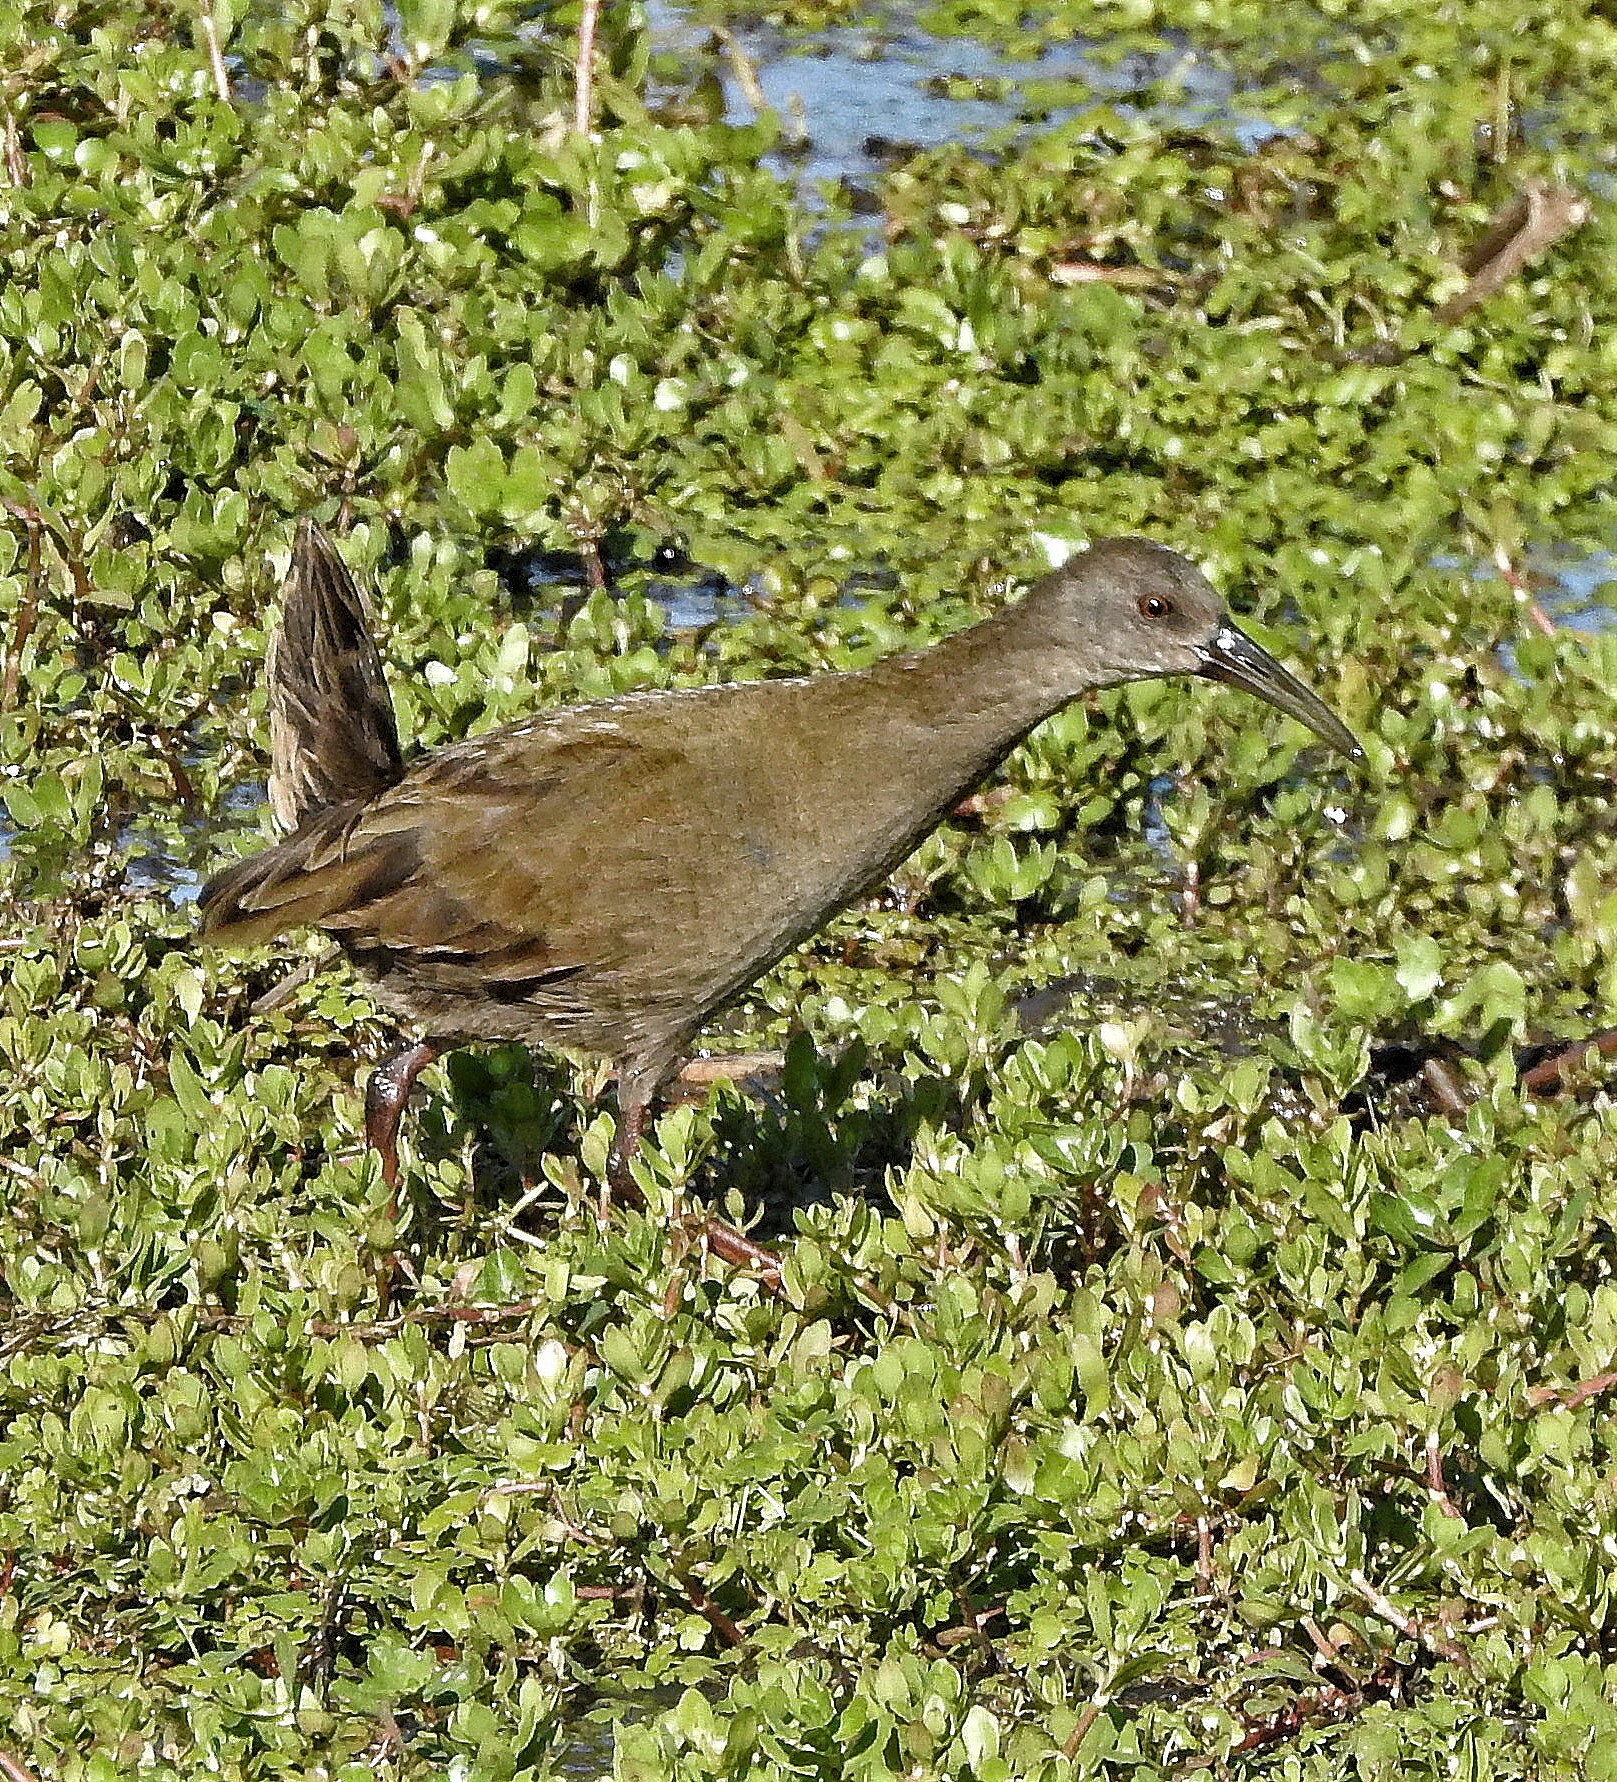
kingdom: Animalia
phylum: Chordata
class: Aves
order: Gruiformes
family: Rallidae
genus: Pardirallus
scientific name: Pardirallus sanguinolentus
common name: Plumbeous rail
